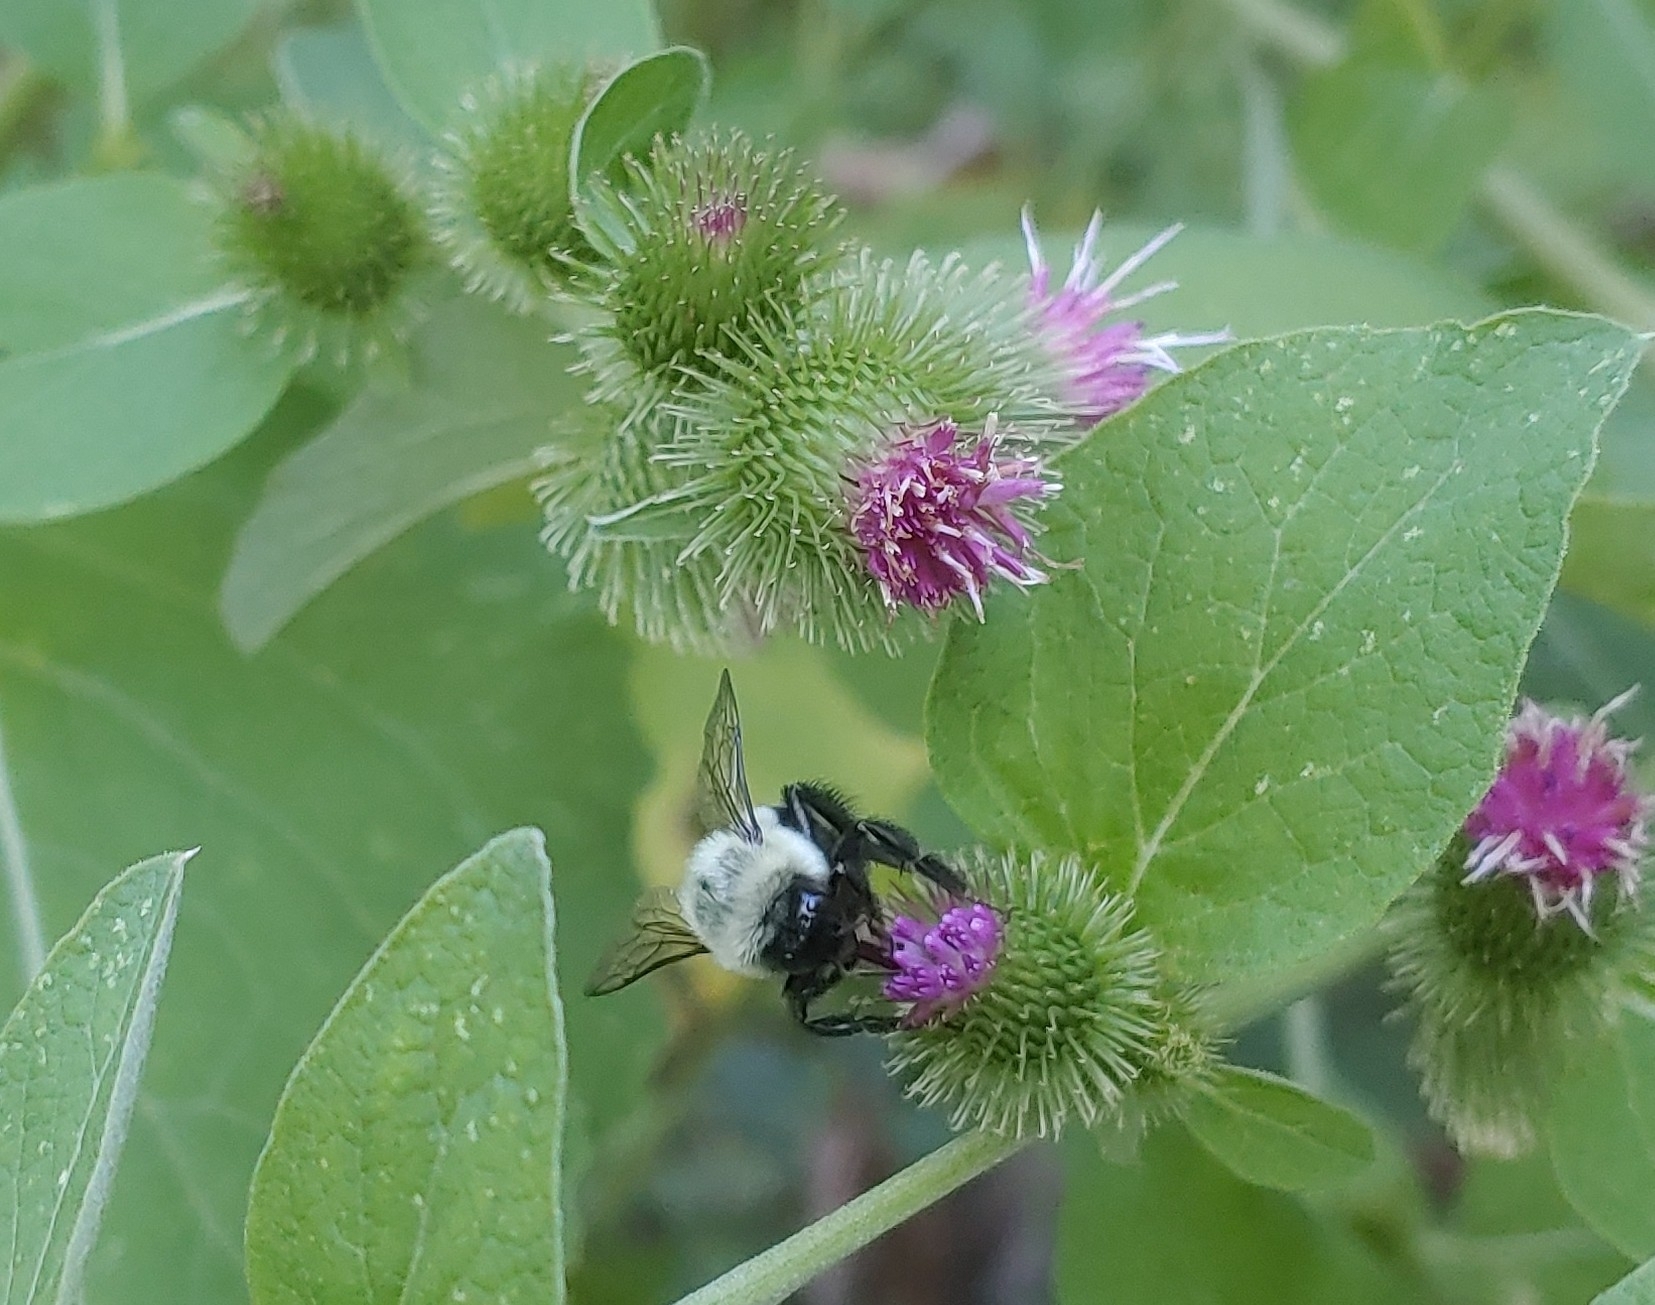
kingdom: Animalia
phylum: Arthropoda
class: Insecta
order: Hymenoptera
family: Apidae
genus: Bombus
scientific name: Bombus impatiens
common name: Common eastern bumble bee
